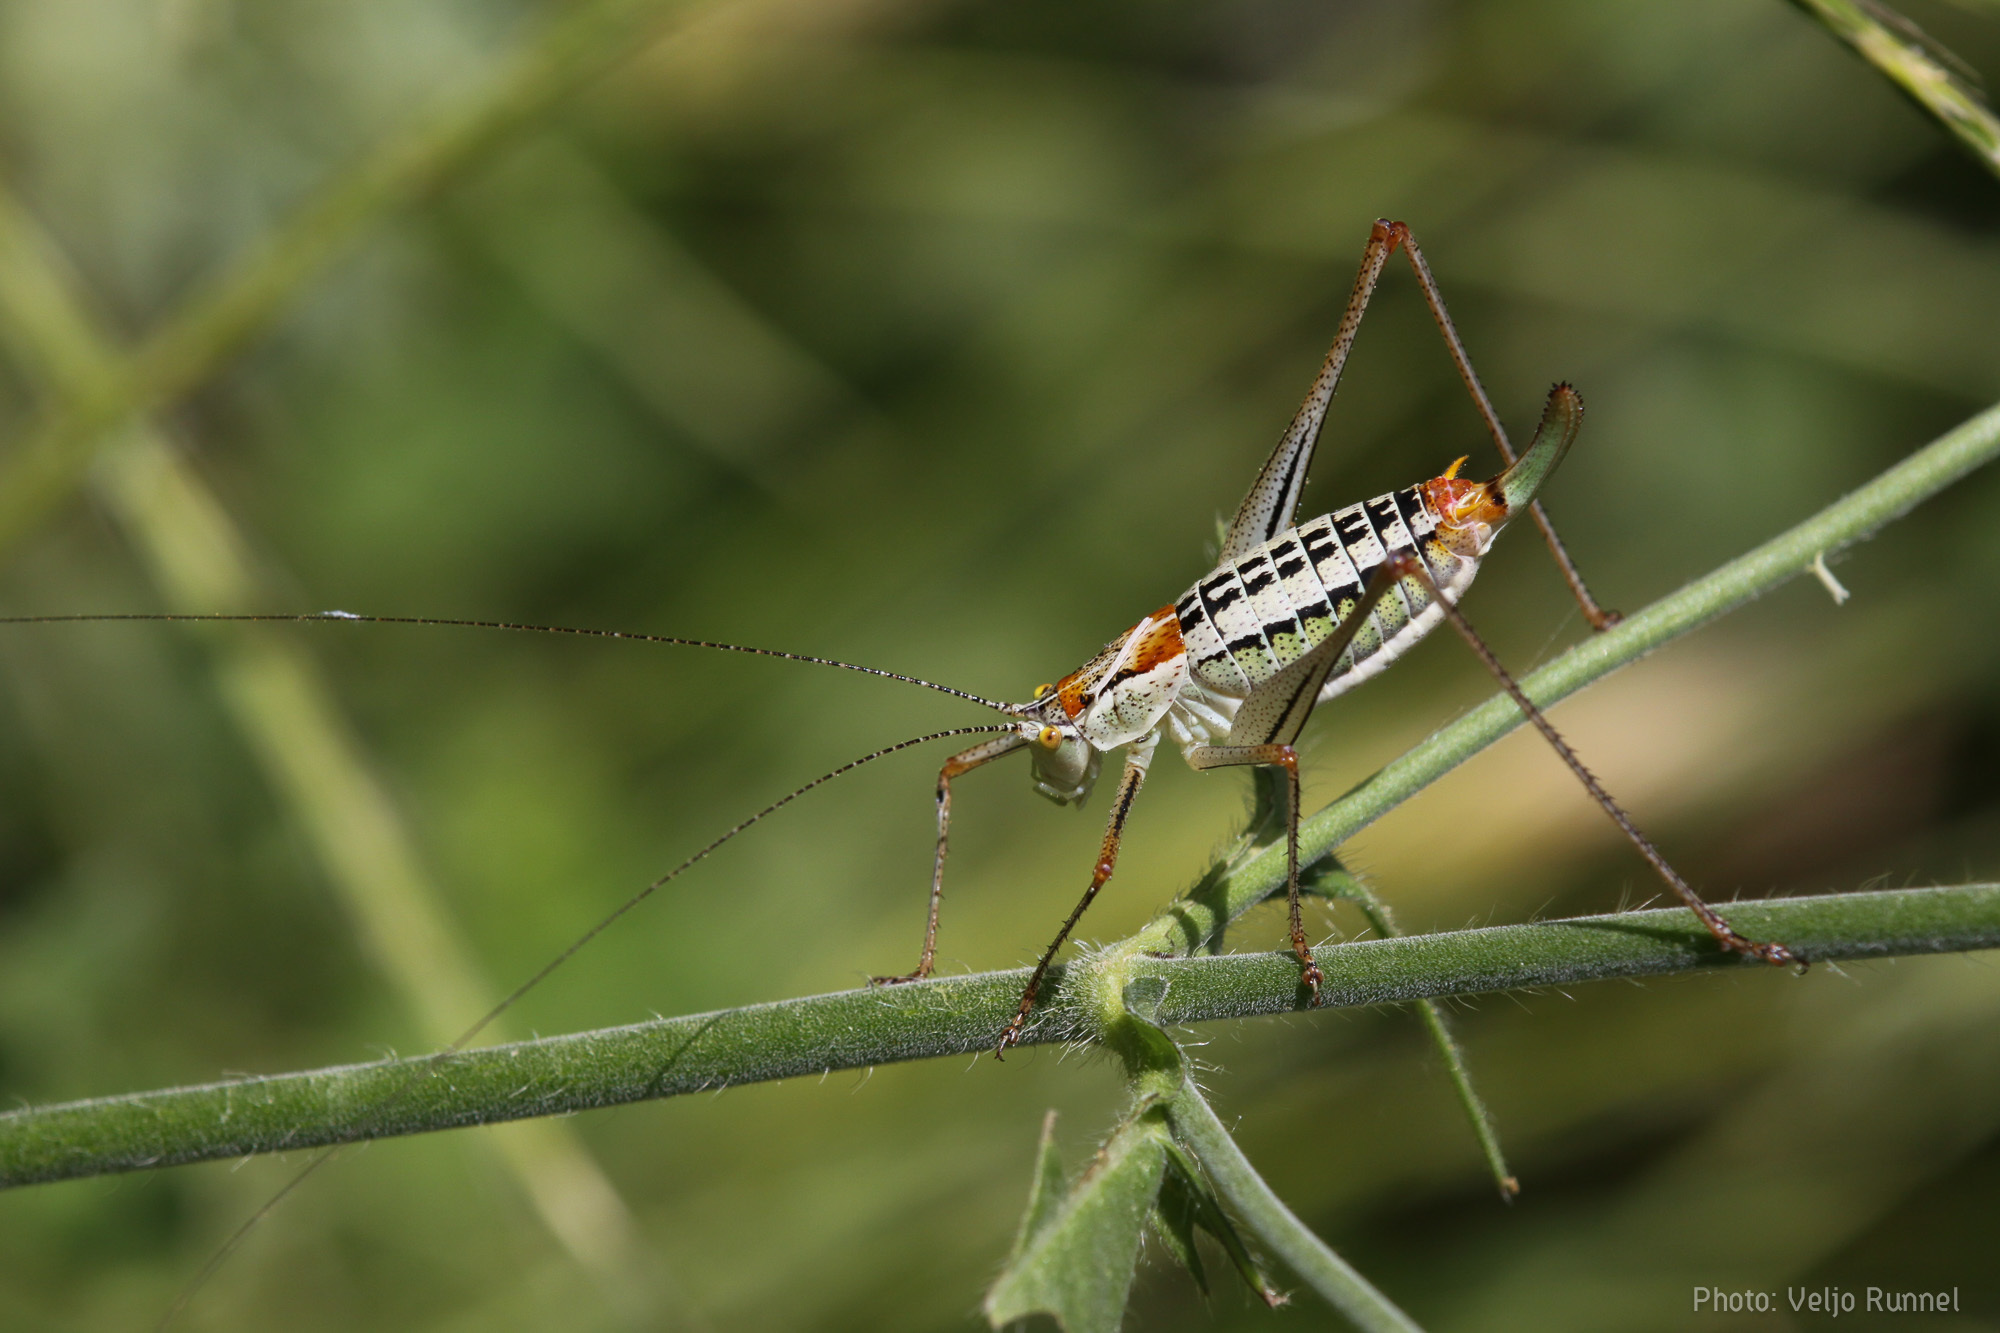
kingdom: Animalia
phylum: Arthropoda
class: Insecta
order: Orthoptera
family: Tettigoniidae
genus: Poecilimon
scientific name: Poecilimon werneri
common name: Werner's bright bush-cricket
